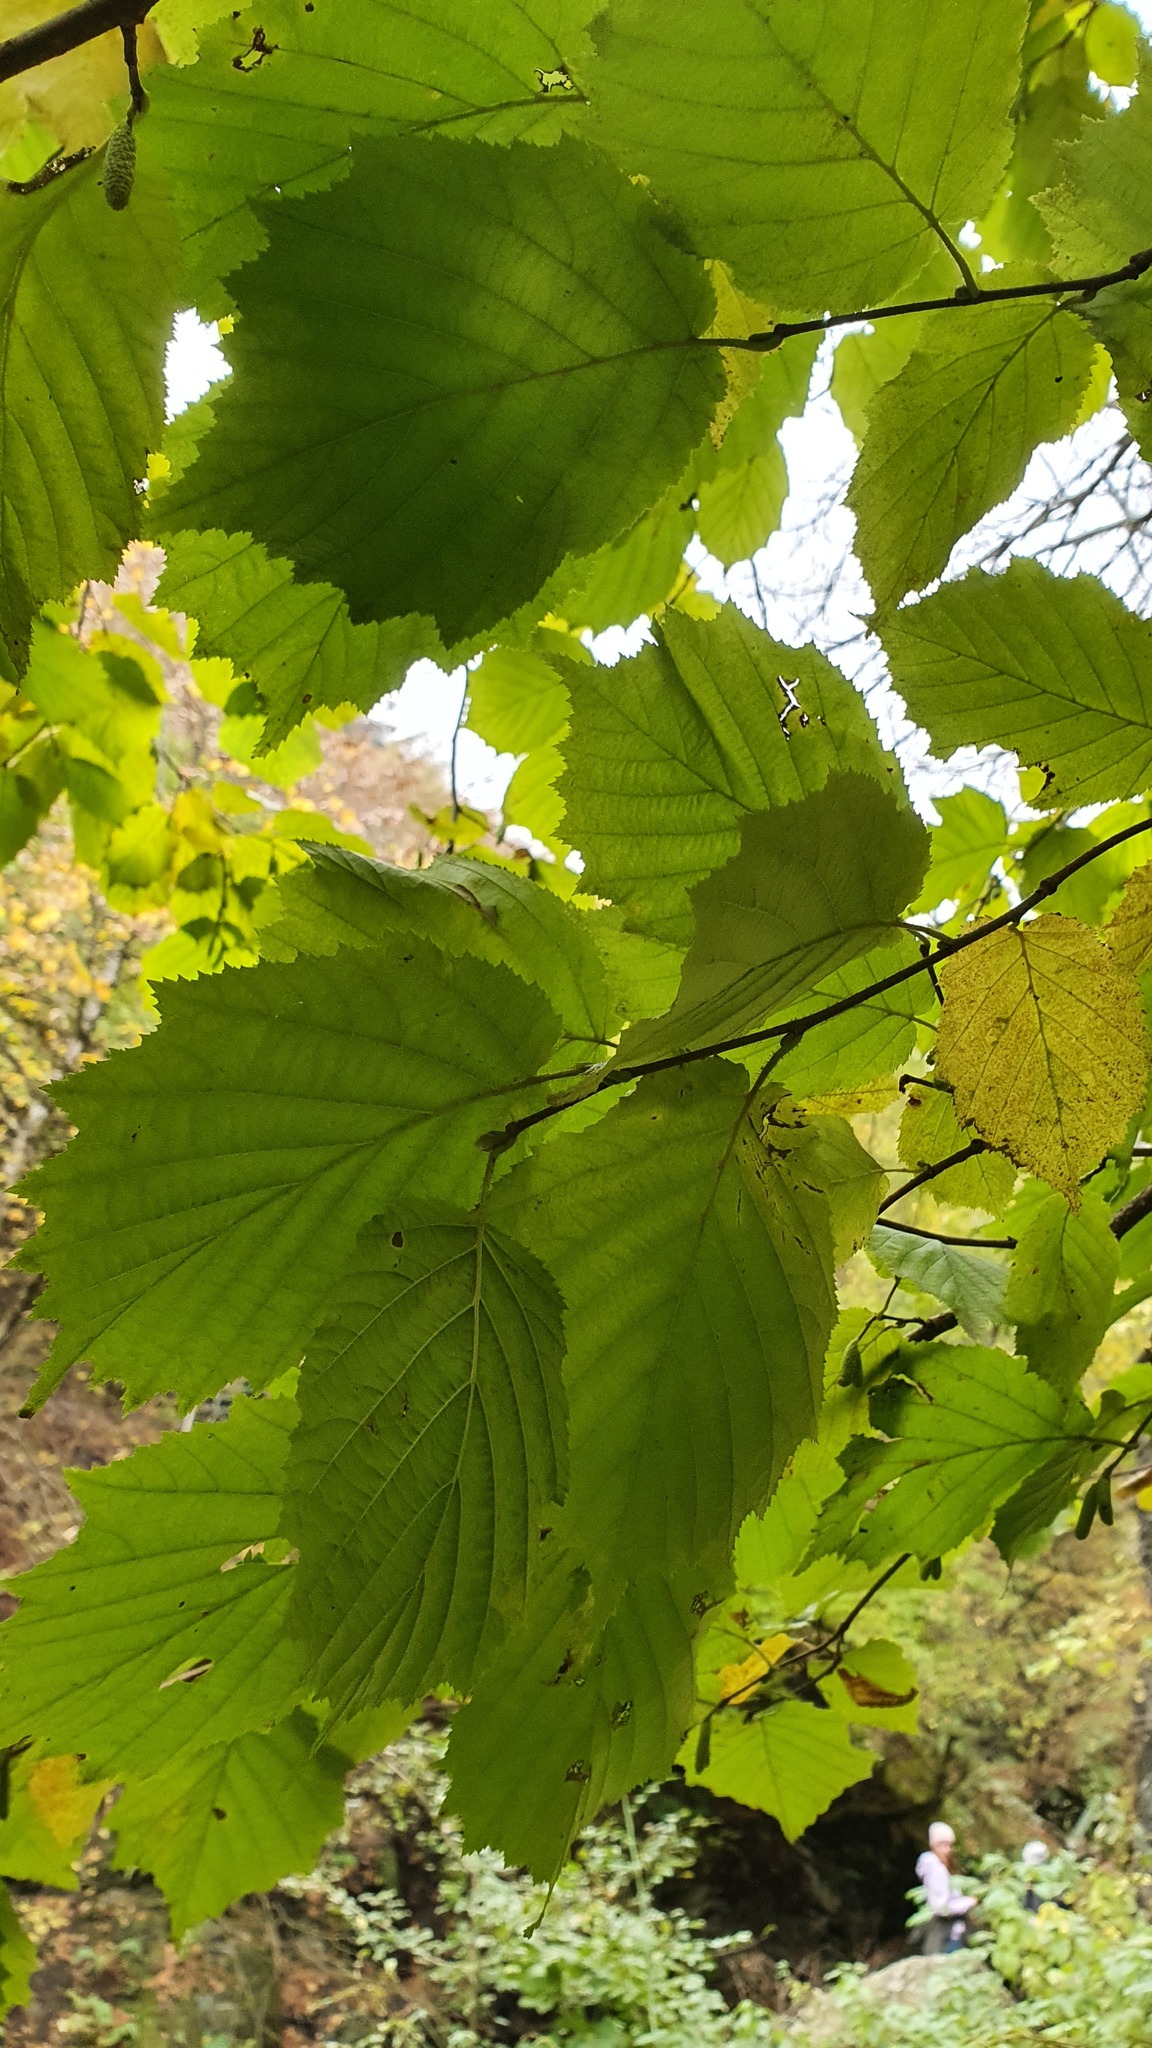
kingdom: Plantae
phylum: Tracheophyta
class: Magnoliopsida
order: Fagales
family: Betulaceae
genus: Corylus
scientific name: Corylus avellana
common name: European hazel
